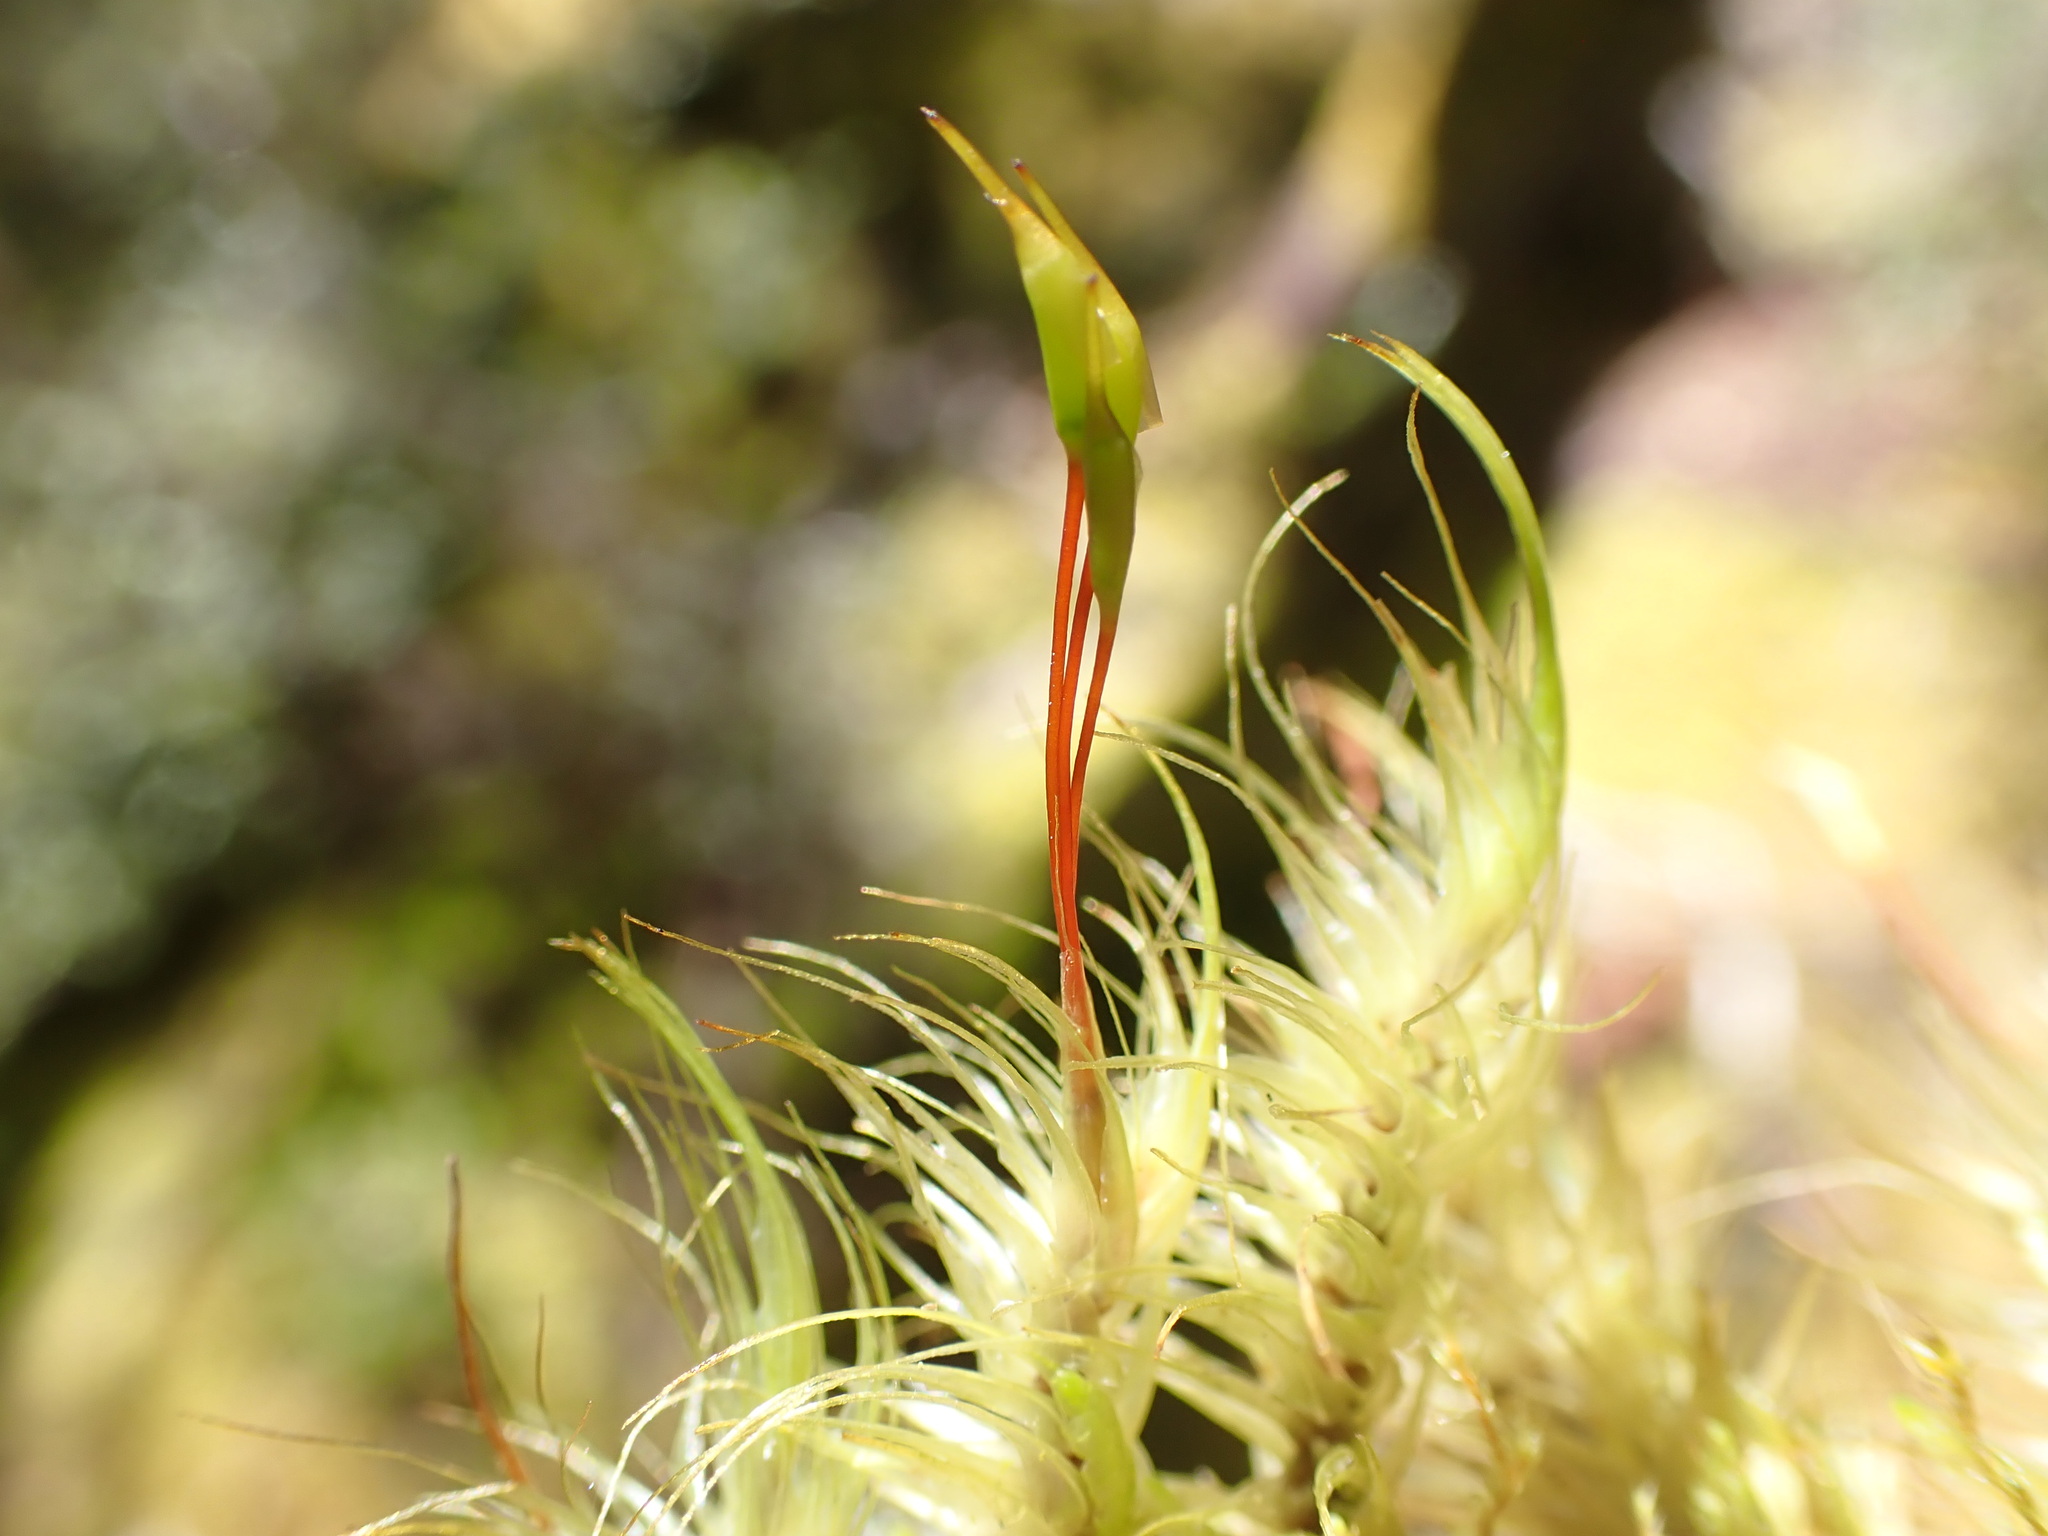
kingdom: Plantae
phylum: Bryophyta
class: Bryopsida
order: Dicranales
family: Dicranaceae
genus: Dicranoloma
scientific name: Dicranoloma platycaulon
